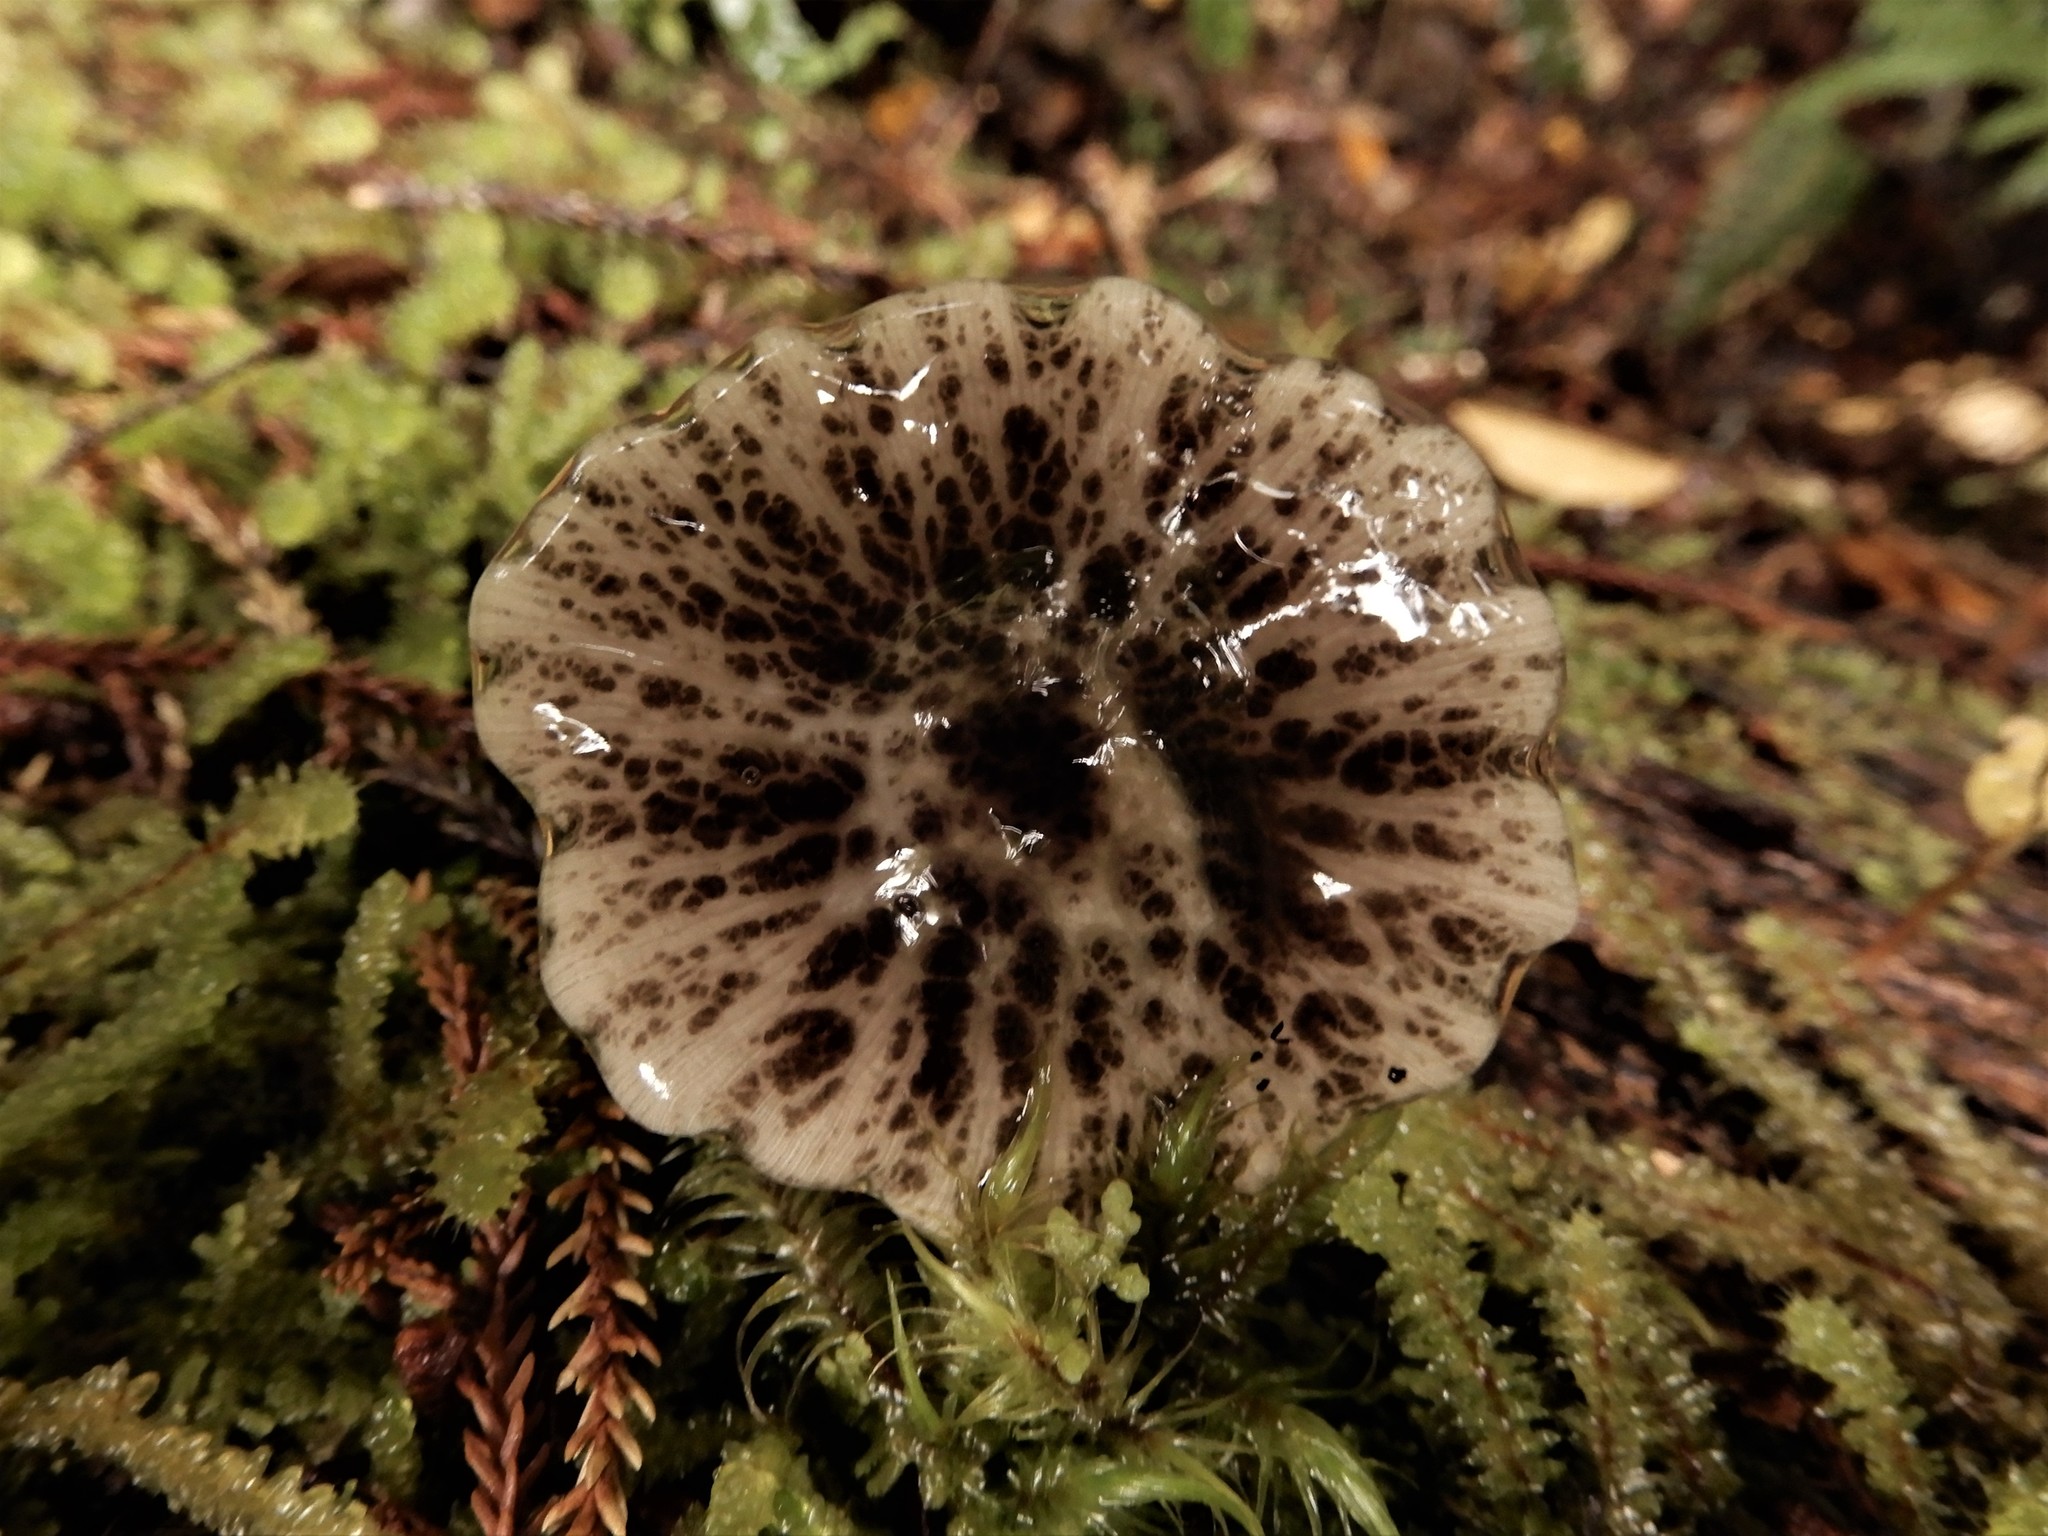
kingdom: Fungi
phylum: Basidiomycota
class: Agaricomycetes
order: Agaricales
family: Bolbitiaceae
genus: Bolbitius
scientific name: Bolbitius muscicola
